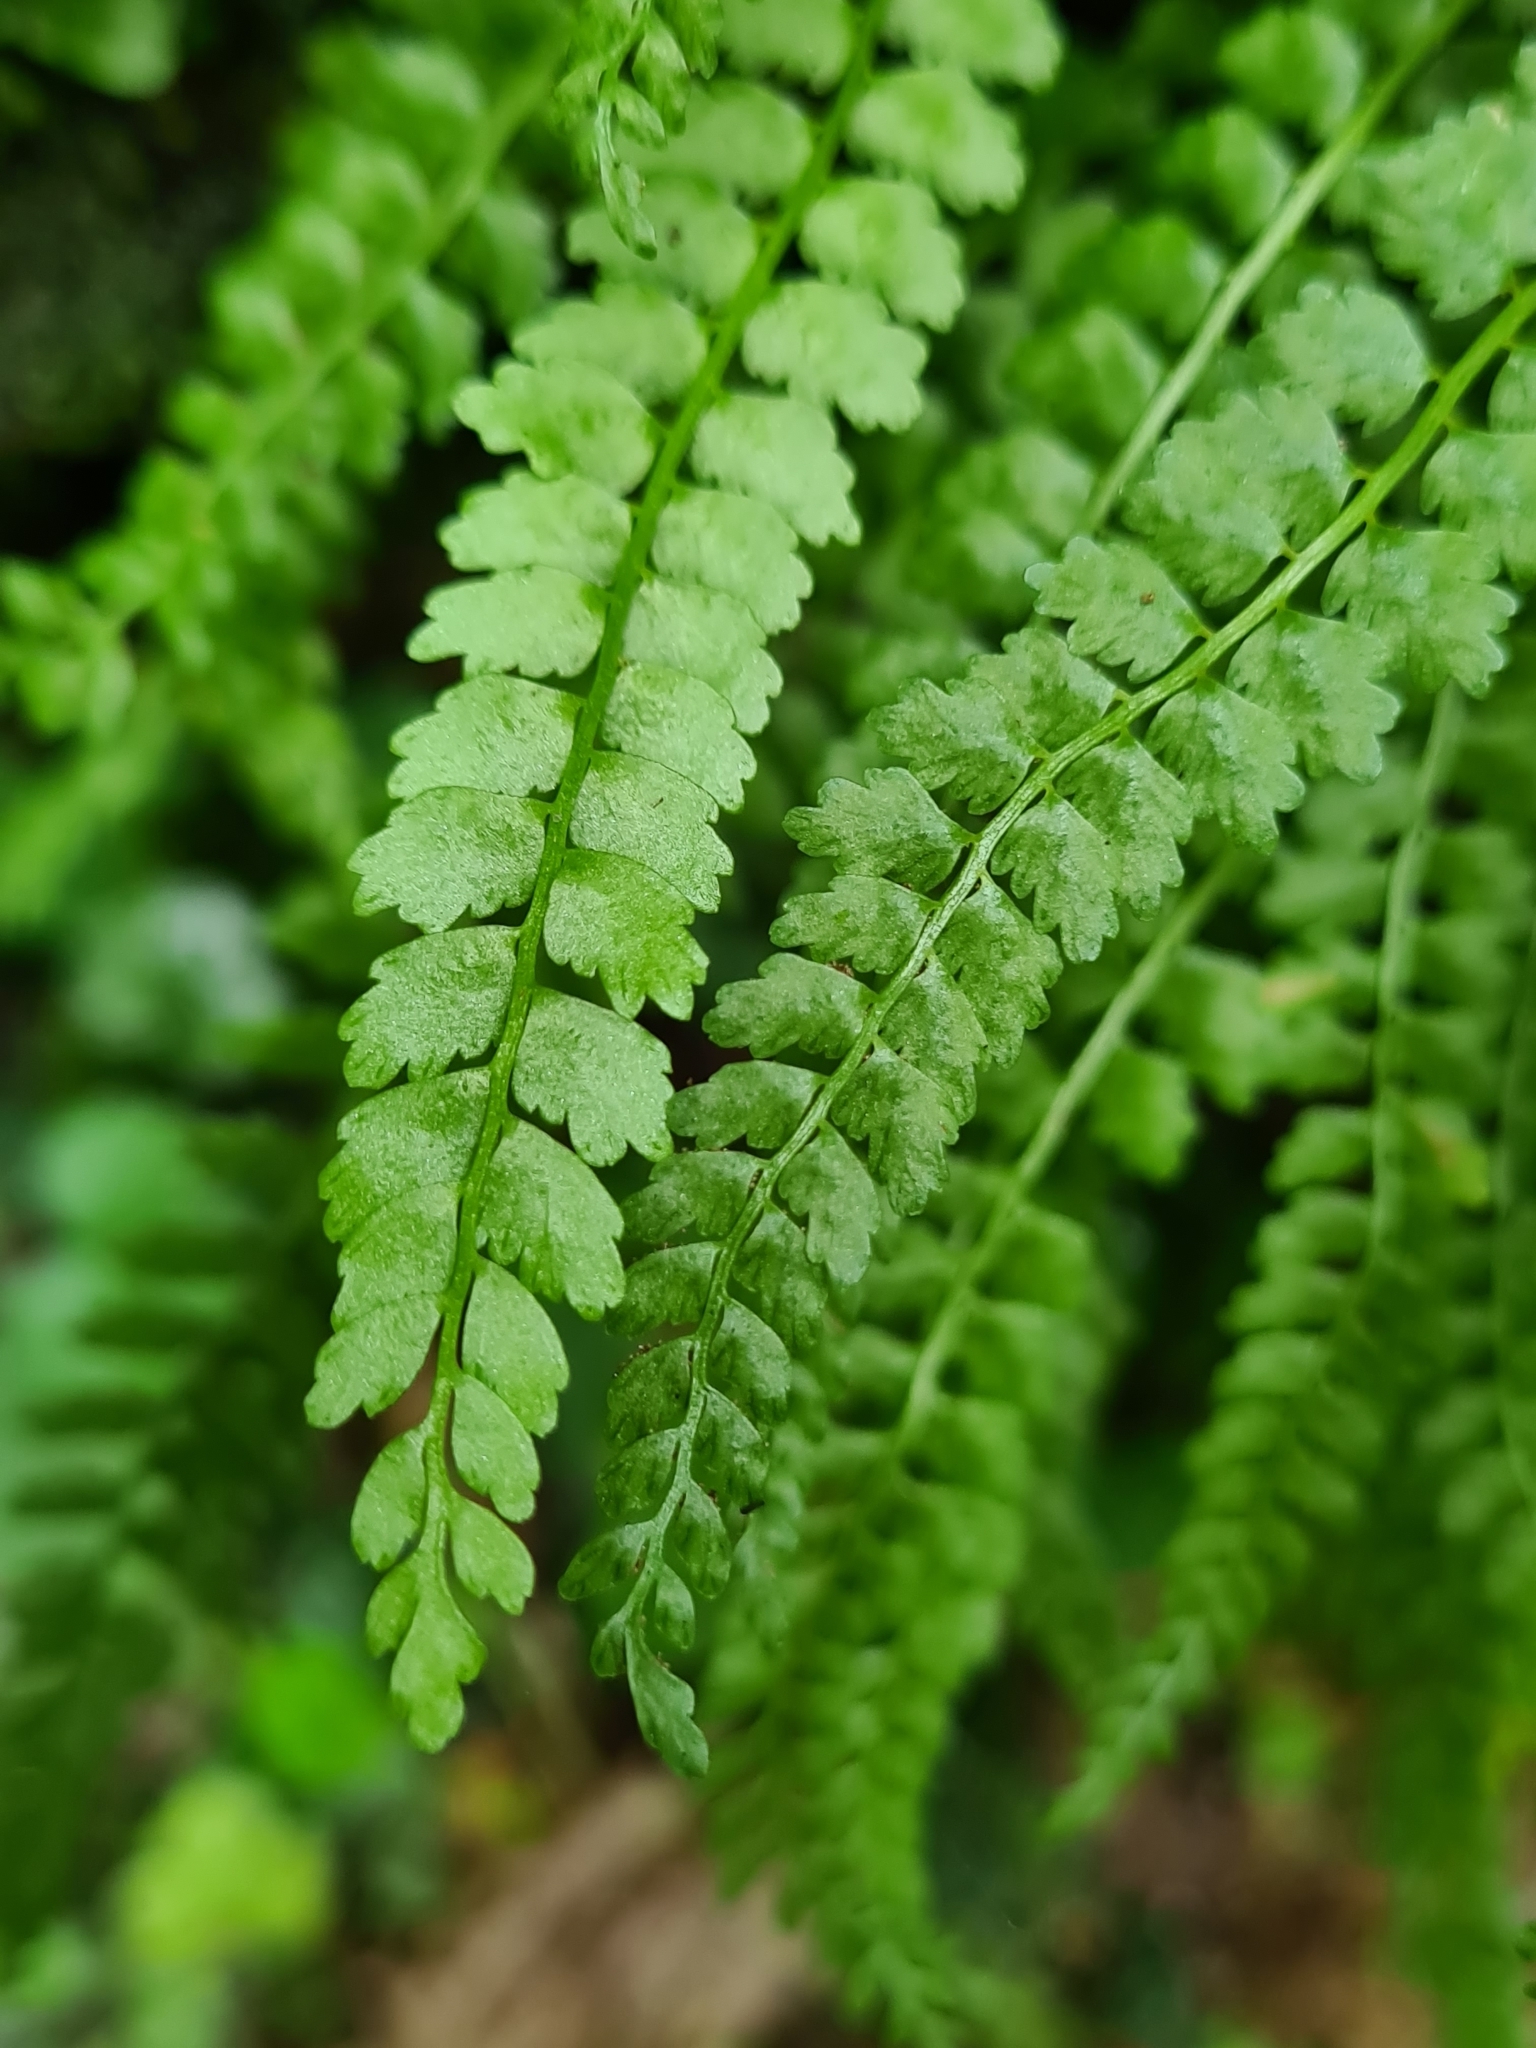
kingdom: Plantae
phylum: Tracheophyta
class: Polypodiopsida
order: Polypodiales
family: Aspleniaceae
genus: Asplenium
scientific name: Asplenium viride
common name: Green spleenwort
